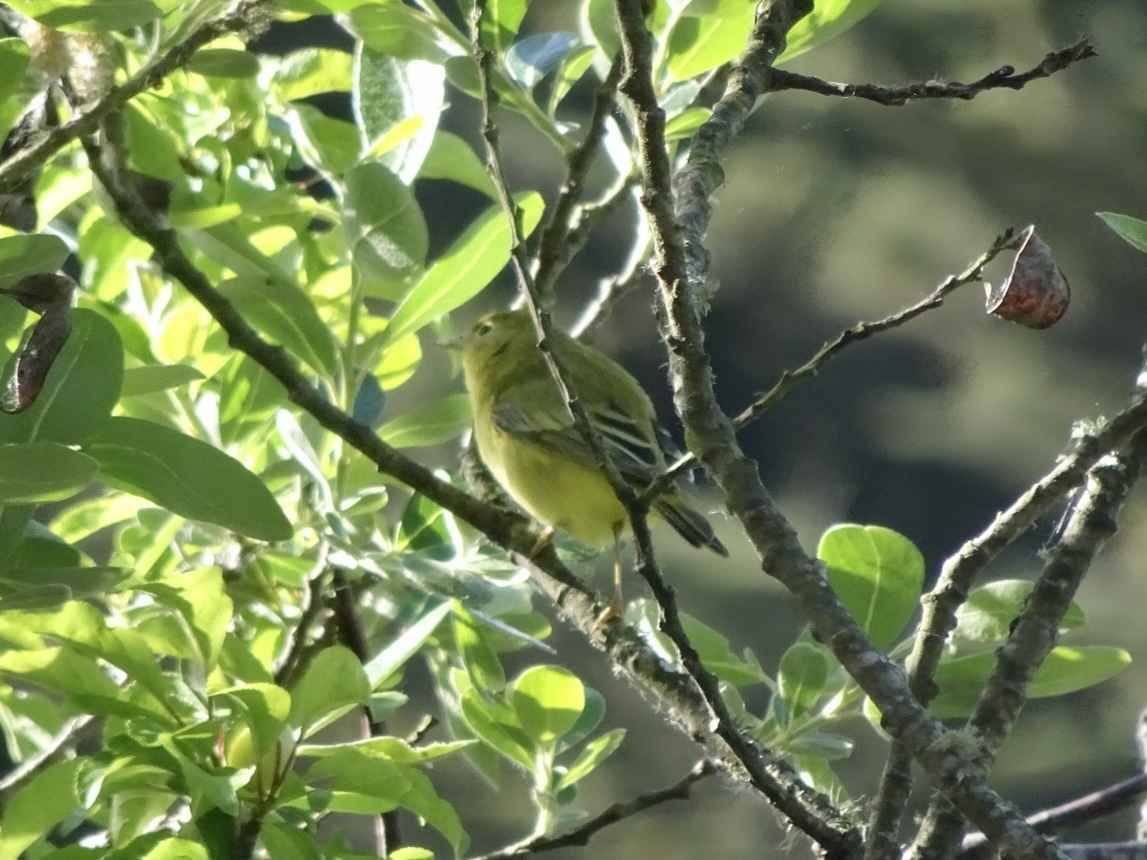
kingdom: Animalia
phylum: Chordata
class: Aves
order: Passeriformes
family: Parulidae
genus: Setophaga
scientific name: Setophaga petechia
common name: Yellow warbler
